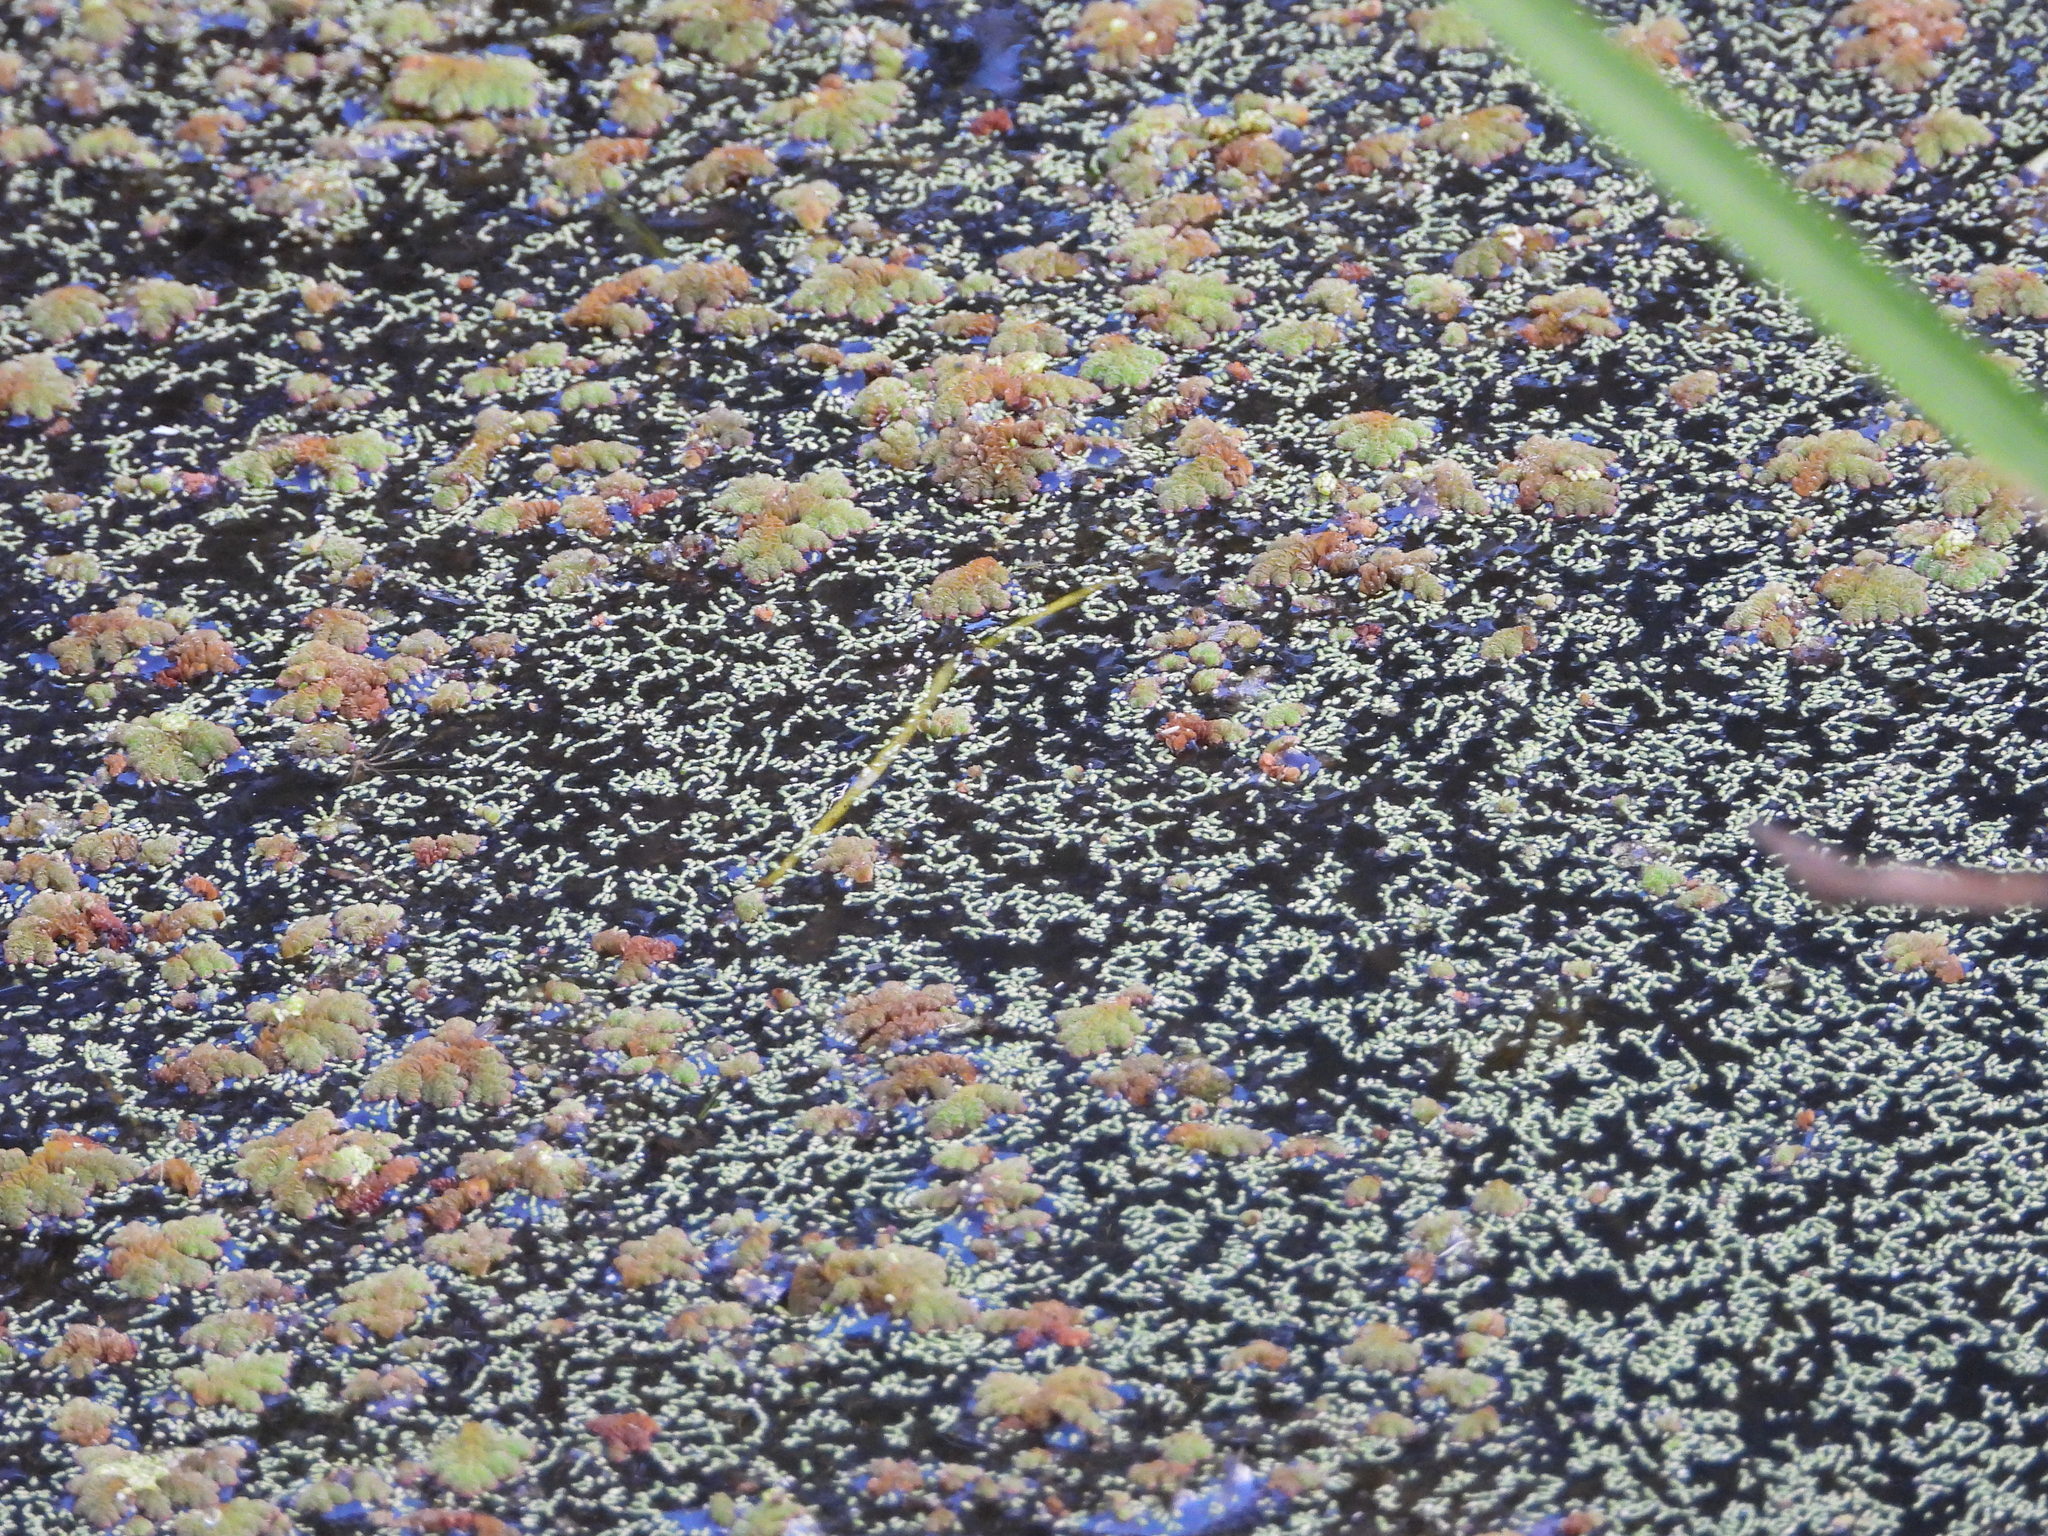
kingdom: Plantae
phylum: Tracheophyta
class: Polypodiopsida
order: Salviniales
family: Salviniaceae
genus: Azolla
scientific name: Azolla filiculoides
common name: Water fern
